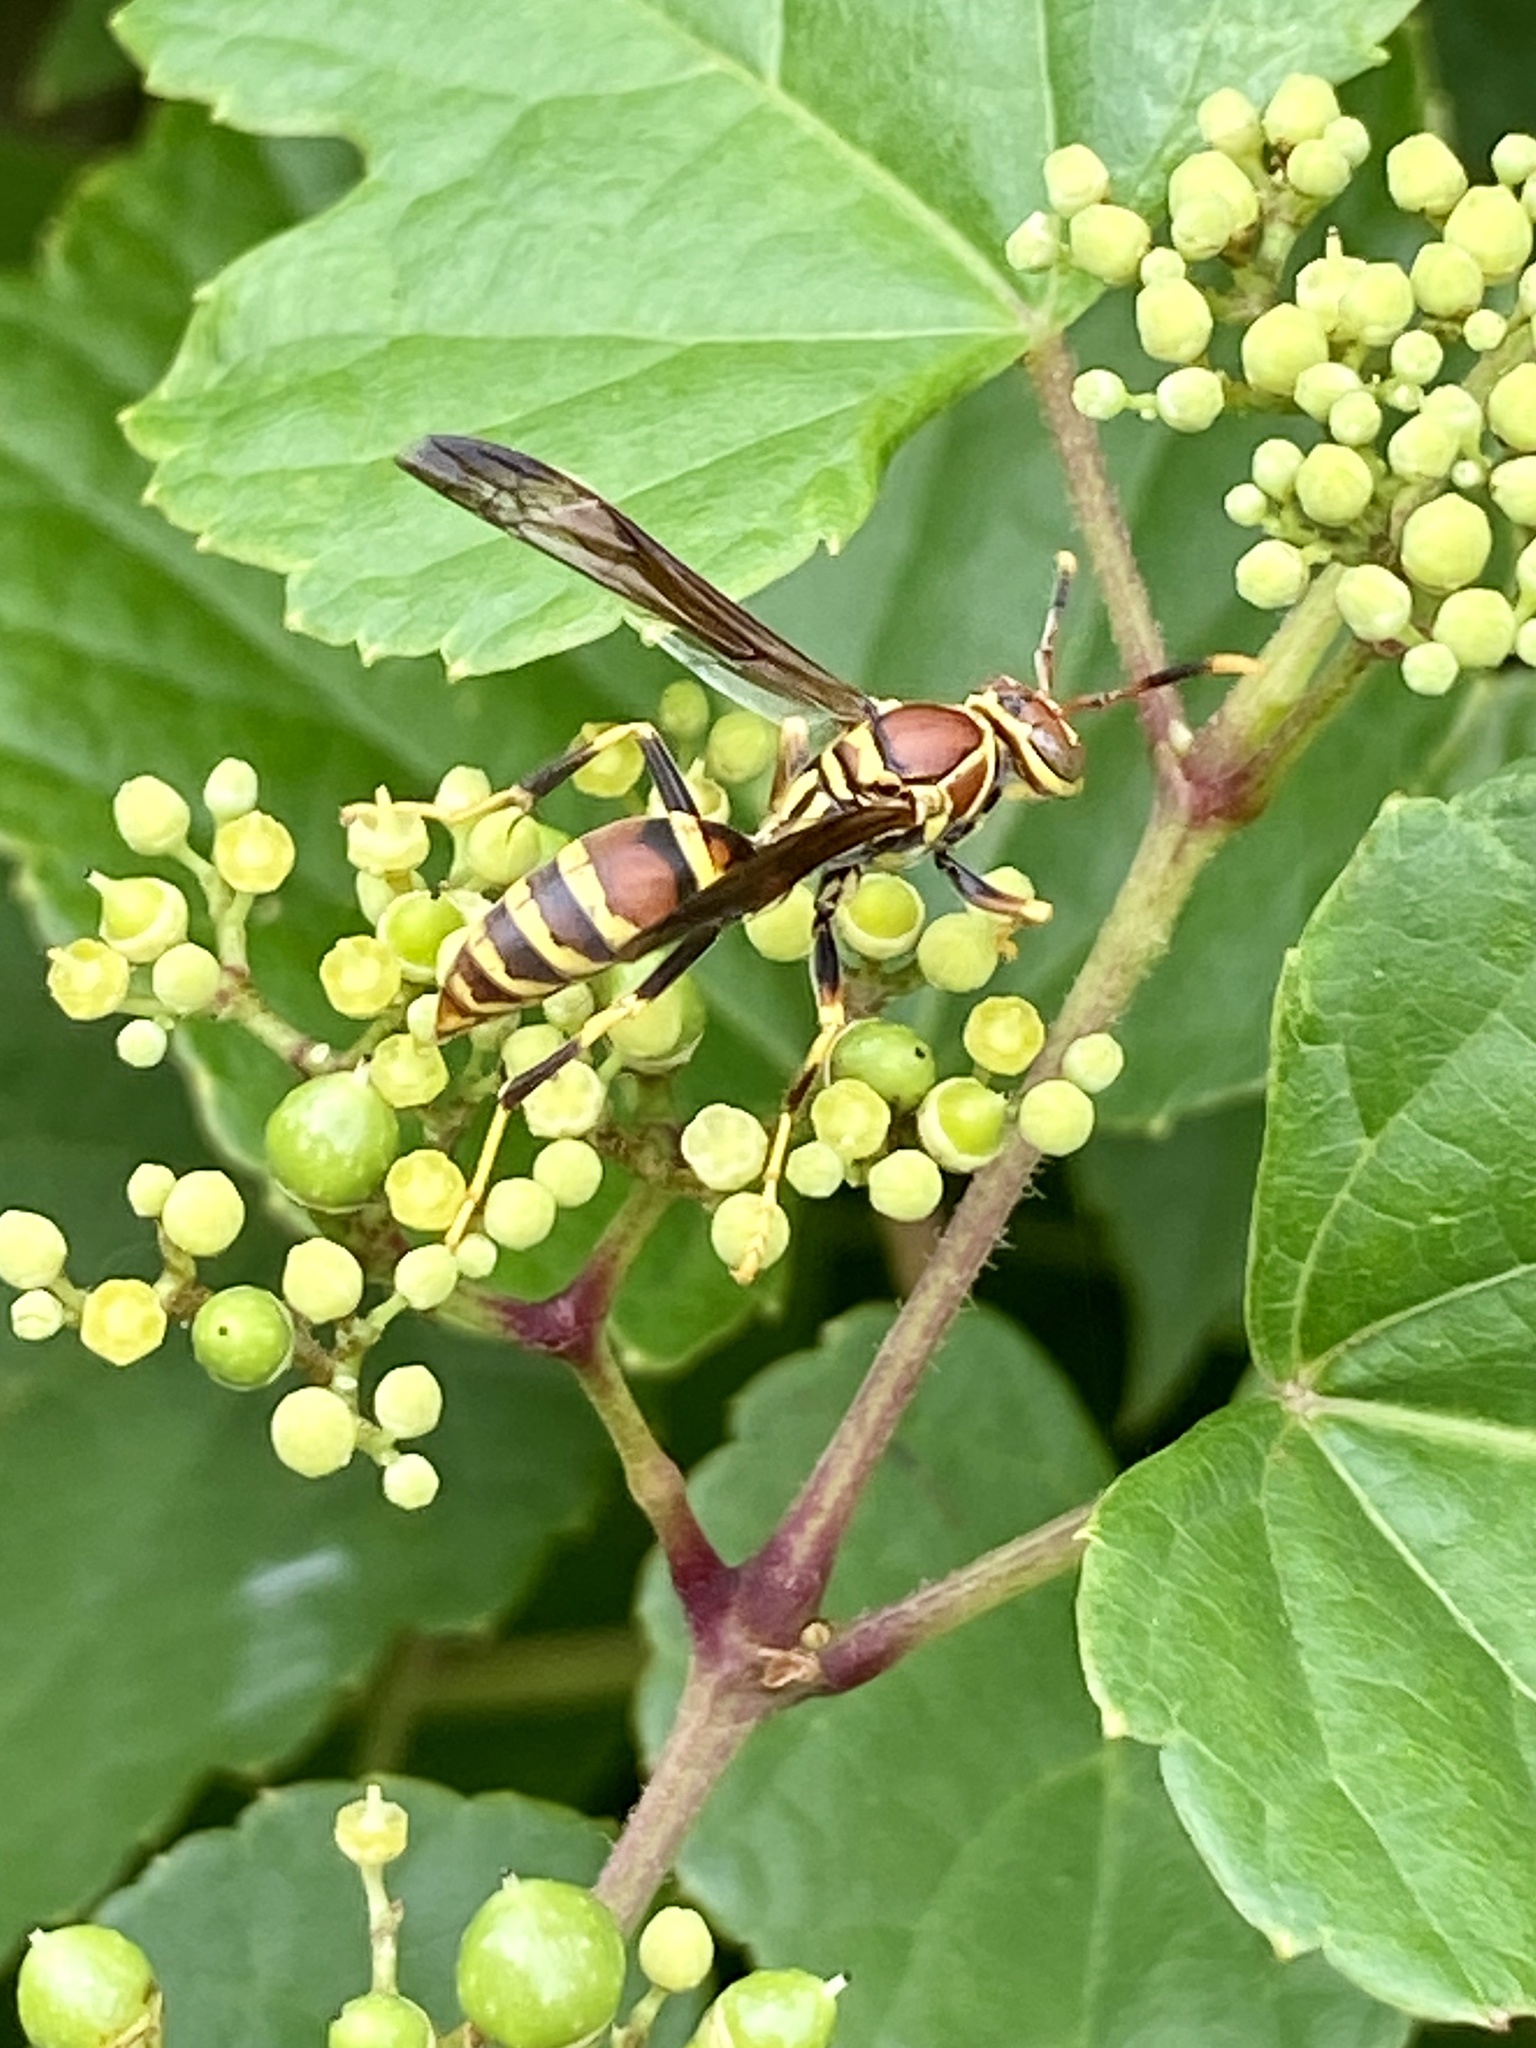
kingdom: Animalia
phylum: Arthropoda
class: Insecta
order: Hymenoptera
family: Eumenidae
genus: Polistes
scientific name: Polistes exclamans
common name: Paper wasp
